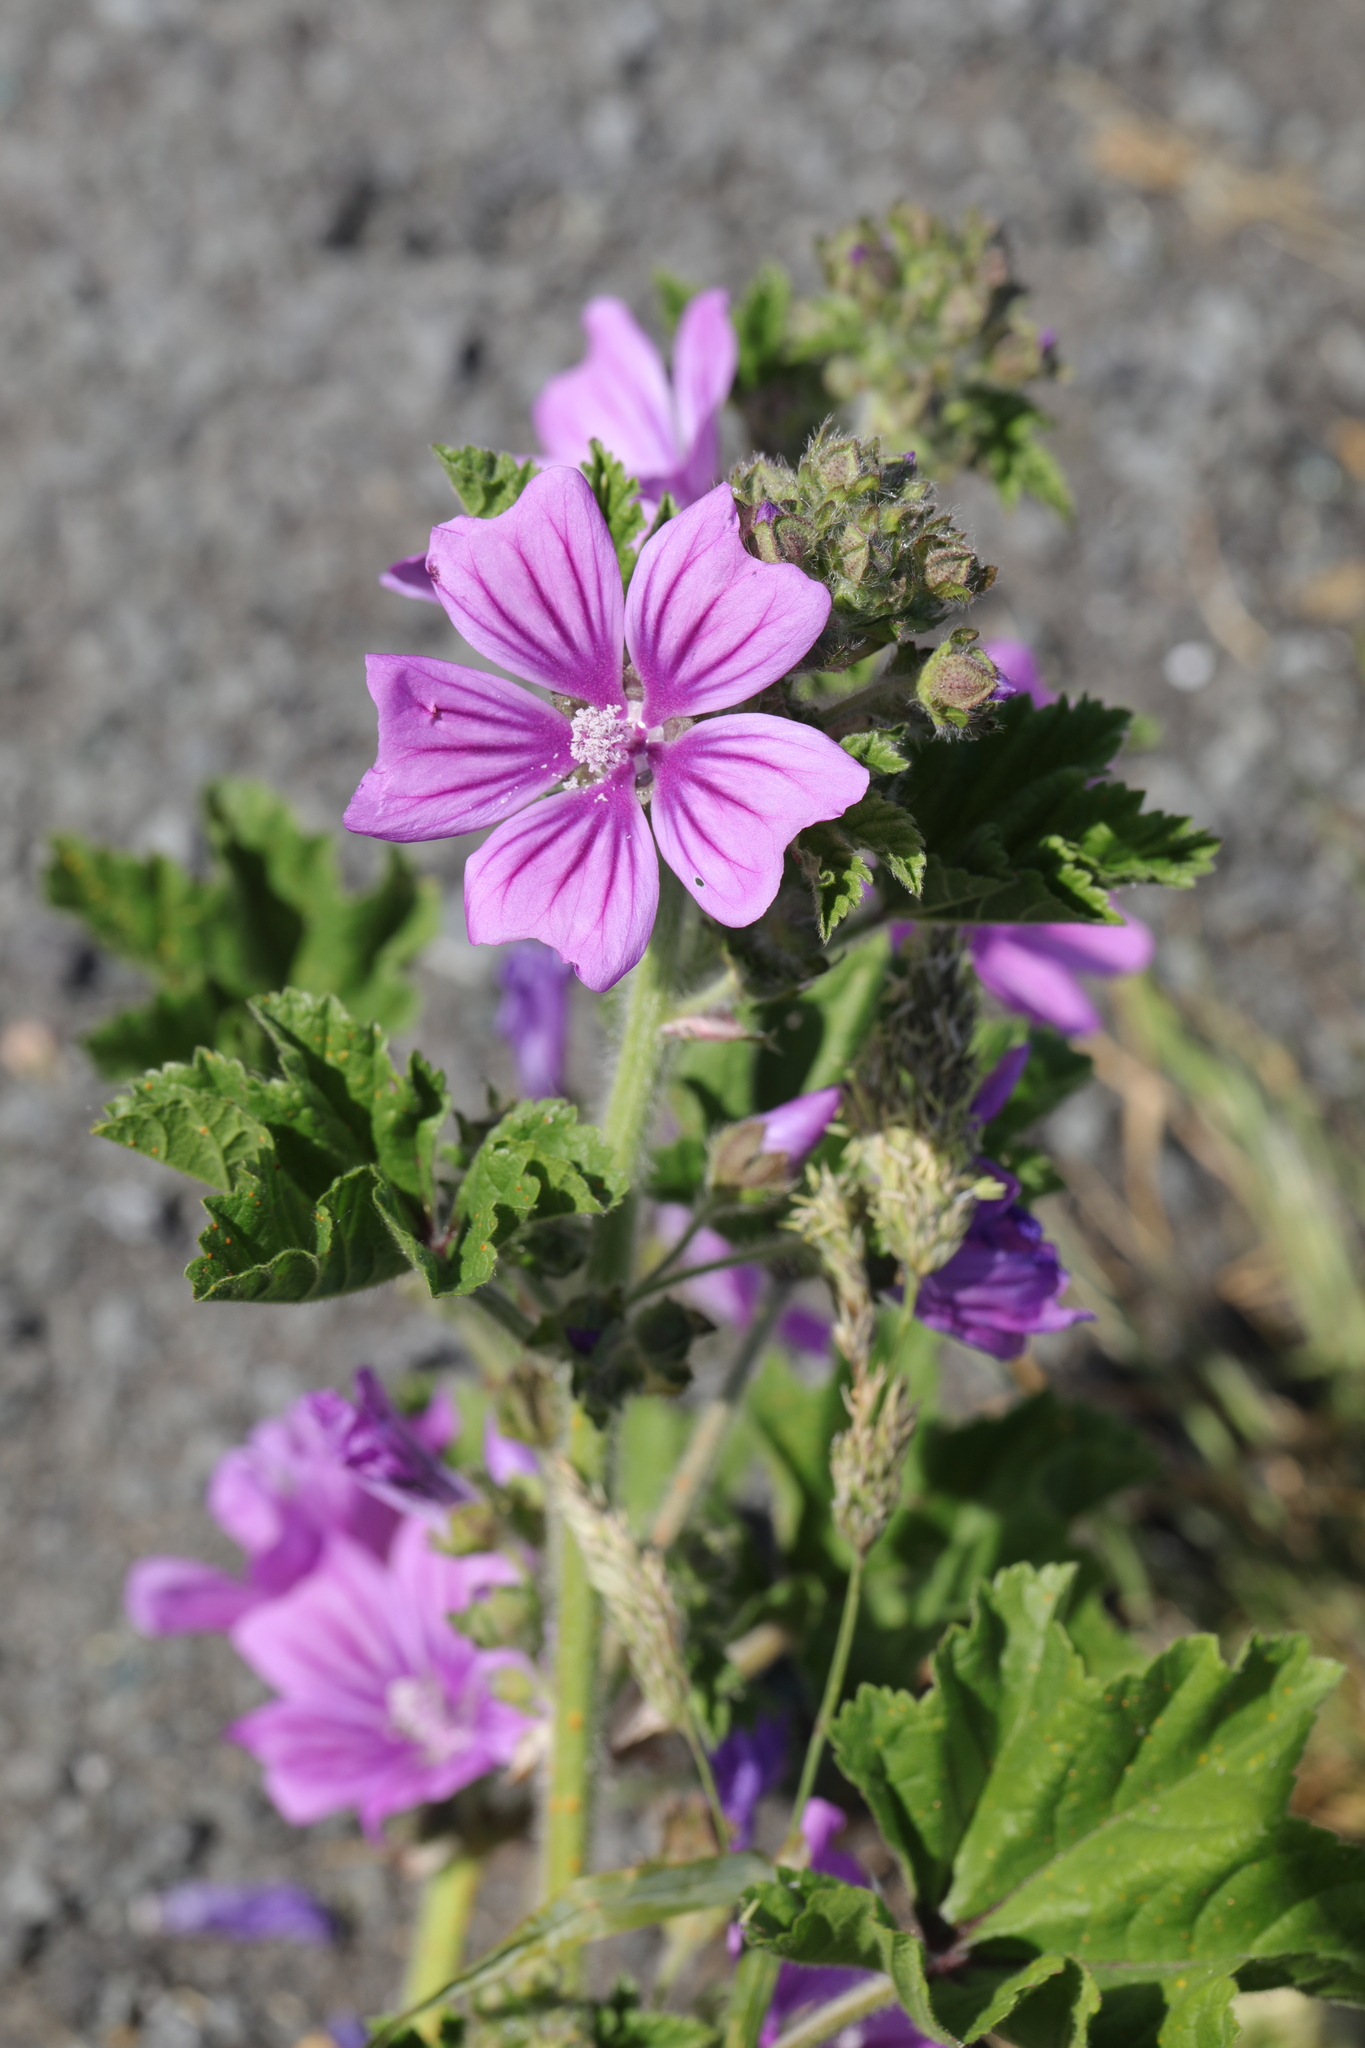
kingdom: Plantae
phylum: Tracheophyta
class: Magnoliopsida
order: Malvales
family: Malvaceae
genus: Malva
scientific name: Malva sylvestris
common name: Common mallow
